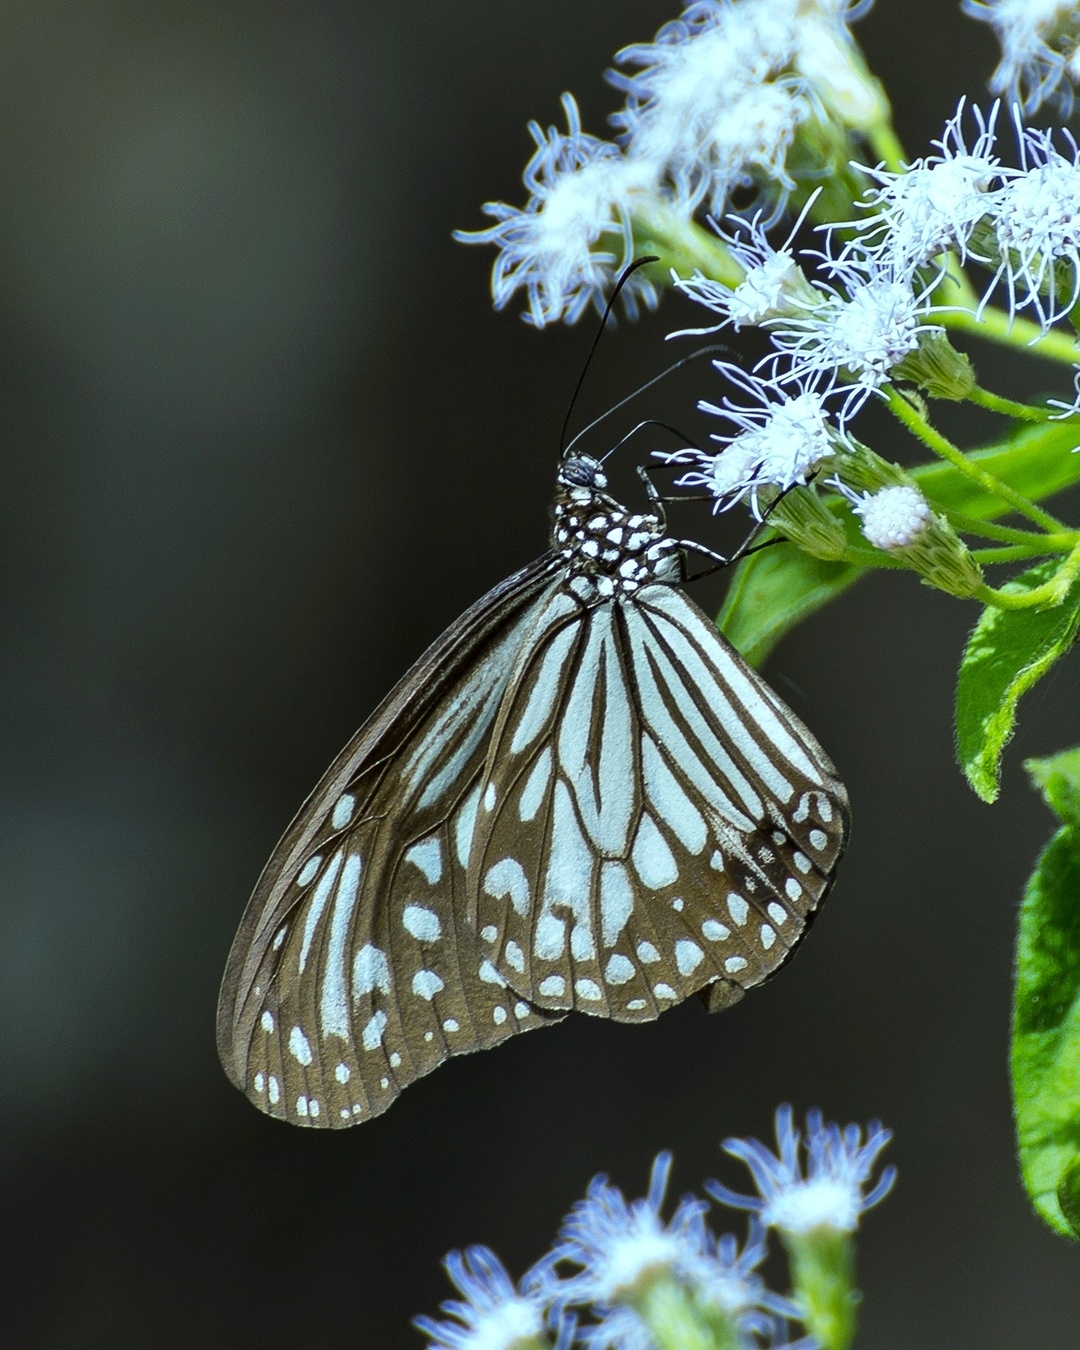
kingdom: Animalia
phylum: Arthropoda
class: Insecta
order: Lepidoptera
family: Nymphalidae
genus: Parantica
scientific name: Parantica aglea
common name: Glassy tiger
